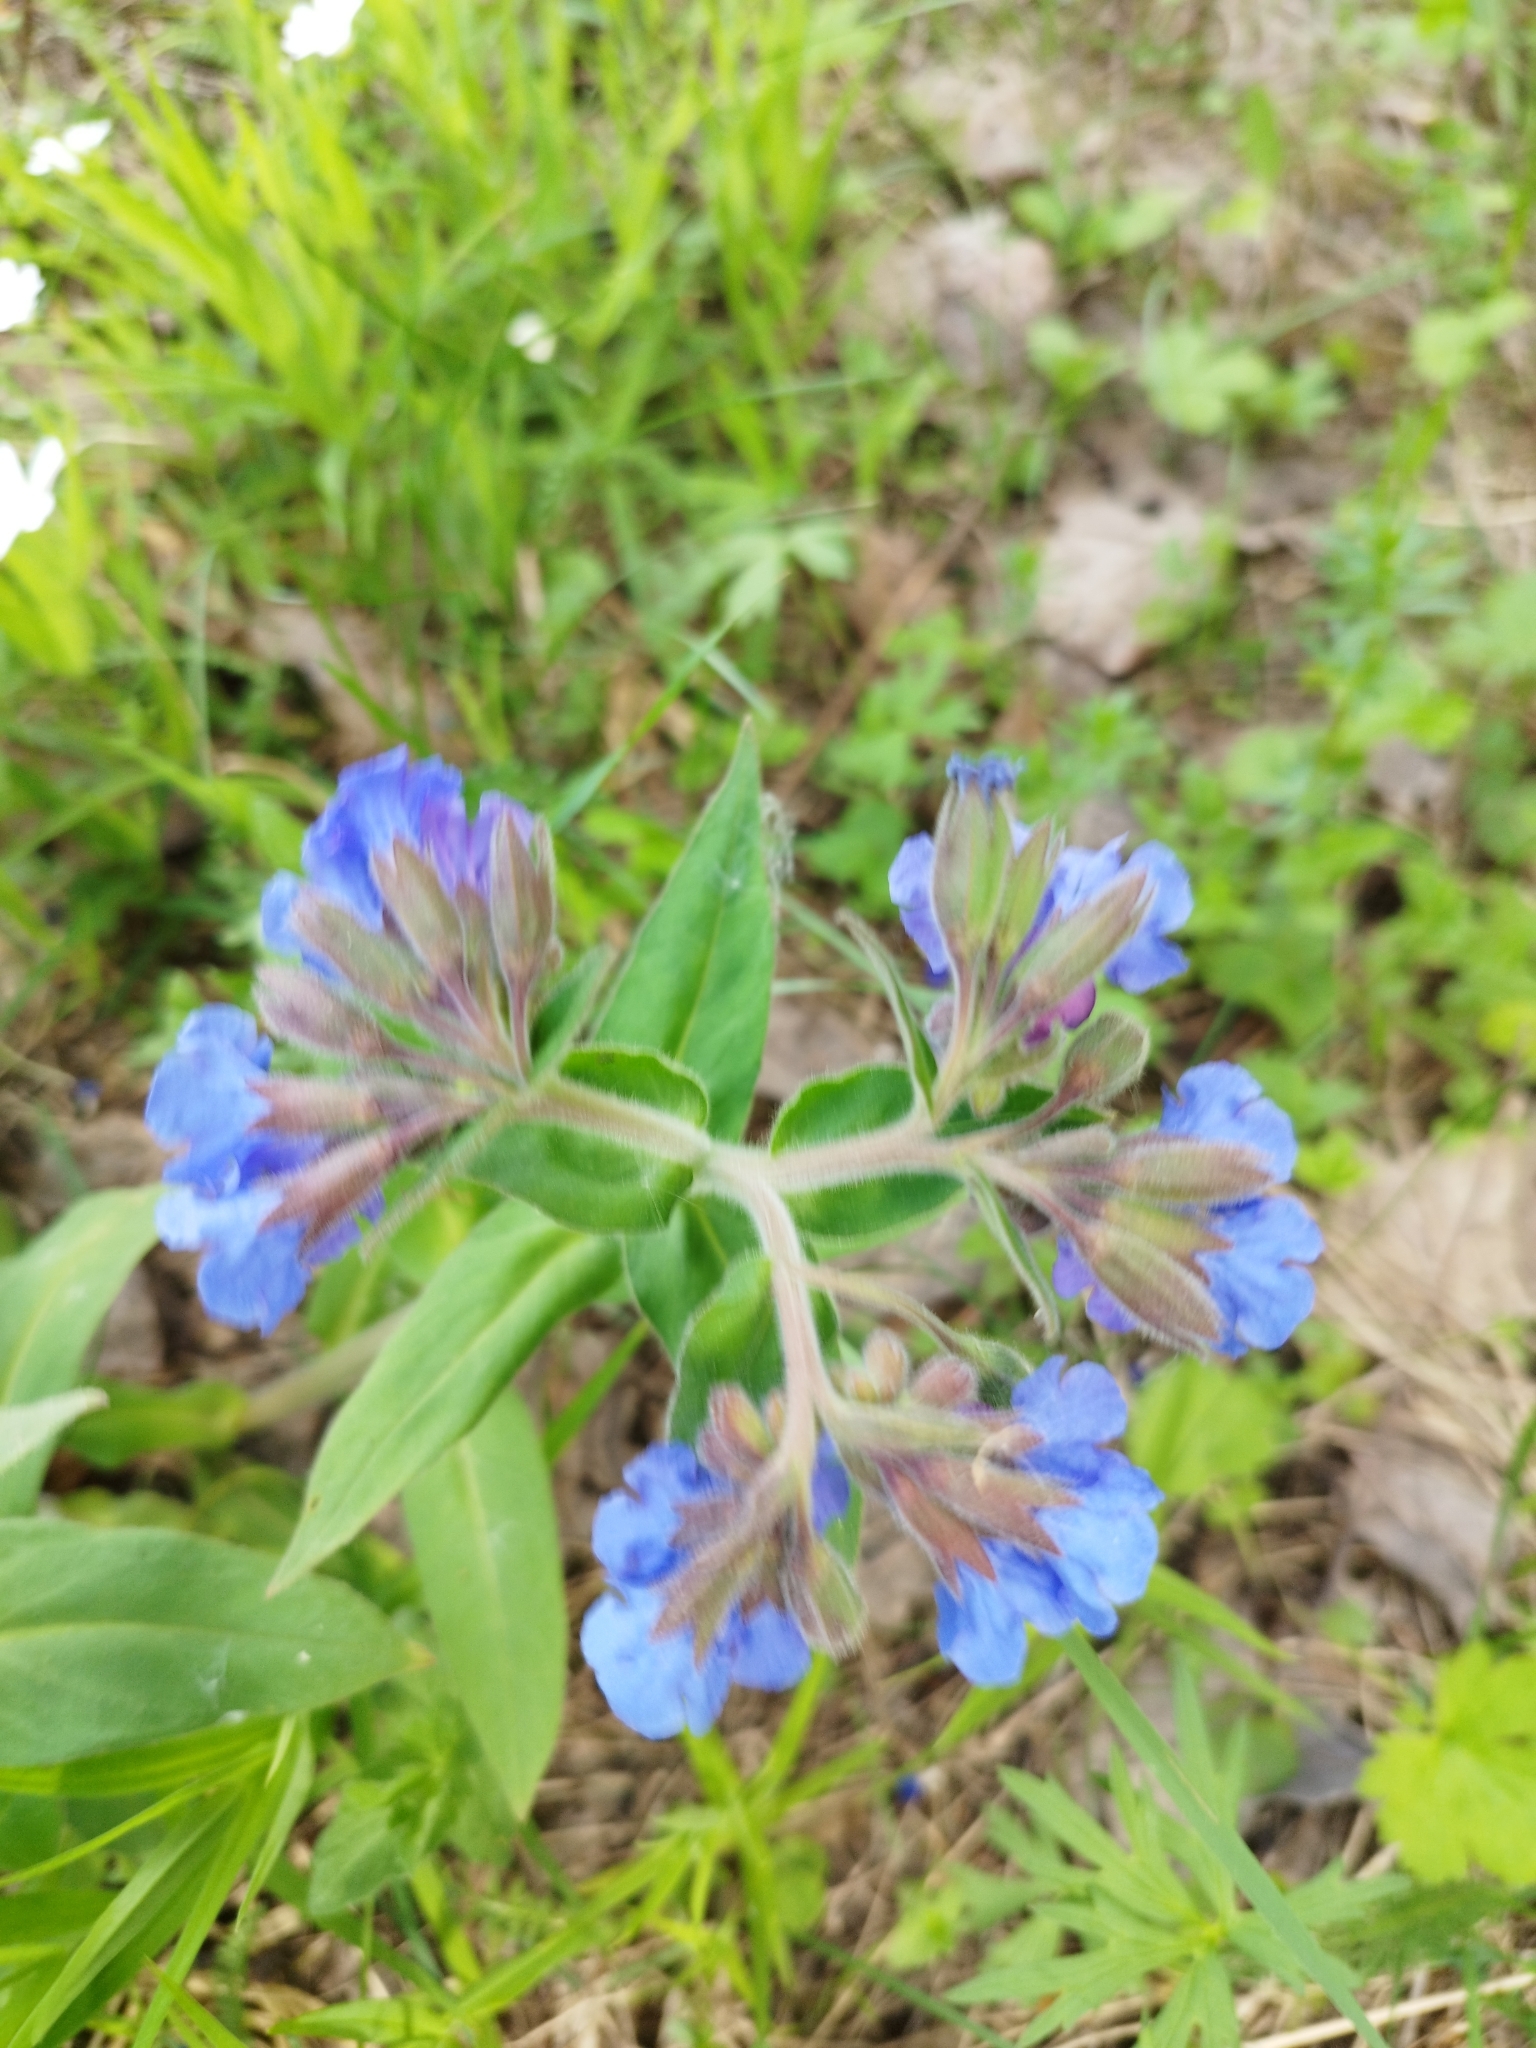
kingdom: Plantae
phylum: Tracheophyta
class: Magnoliopsida
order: Boraginales
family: Boraginaceae
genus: Pulmonaria
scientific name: Pulmonaria mollis
